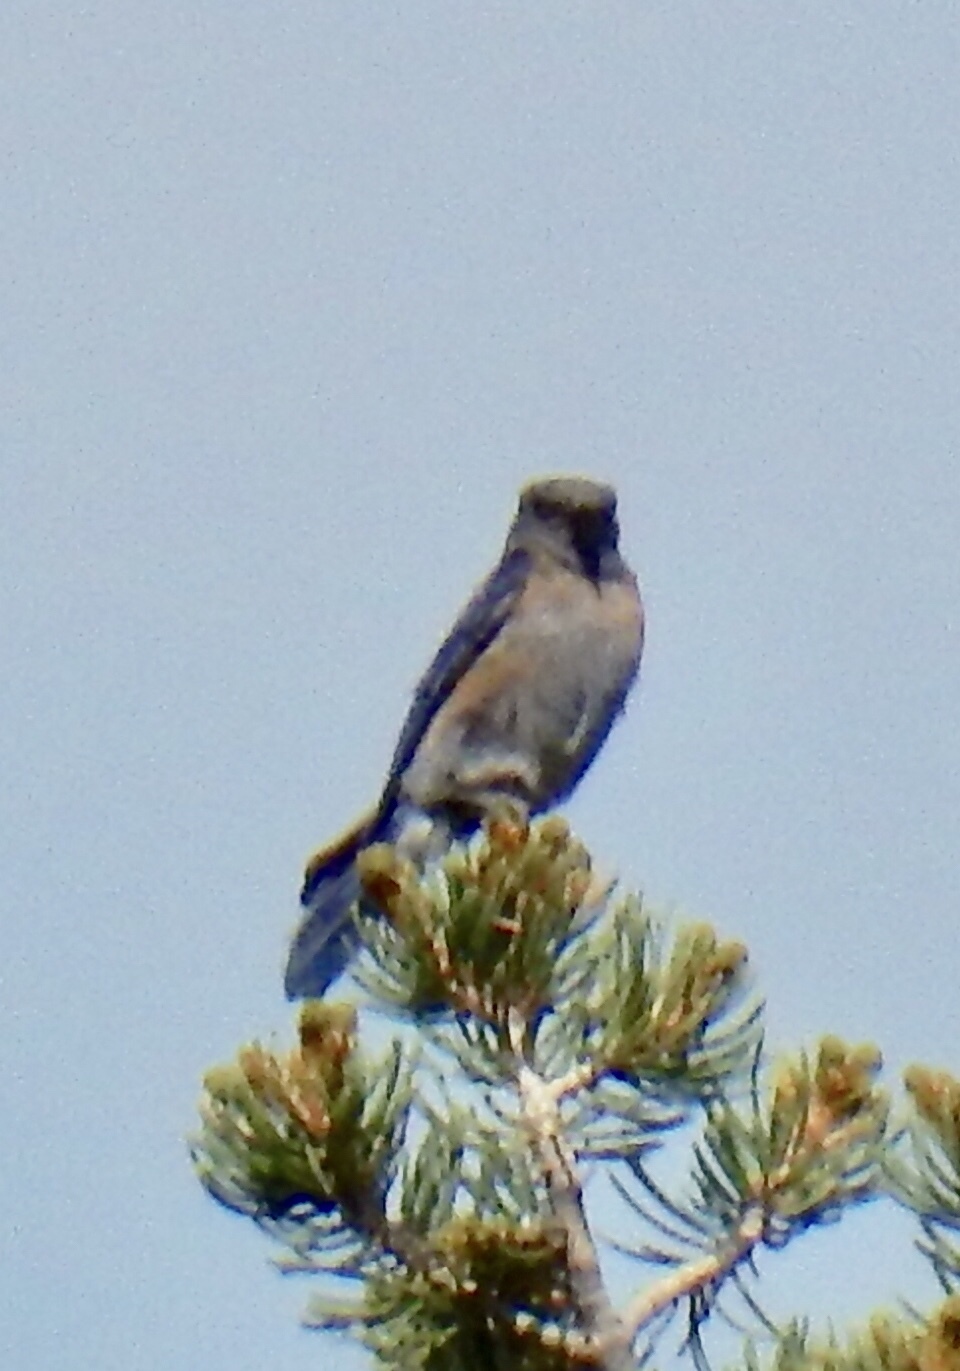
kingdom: Animalia
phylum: Chordata
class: Aves
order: Passeriformes
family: Turdidae
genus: Sialia
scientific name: Sialia mexicana
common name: Western bluebird
